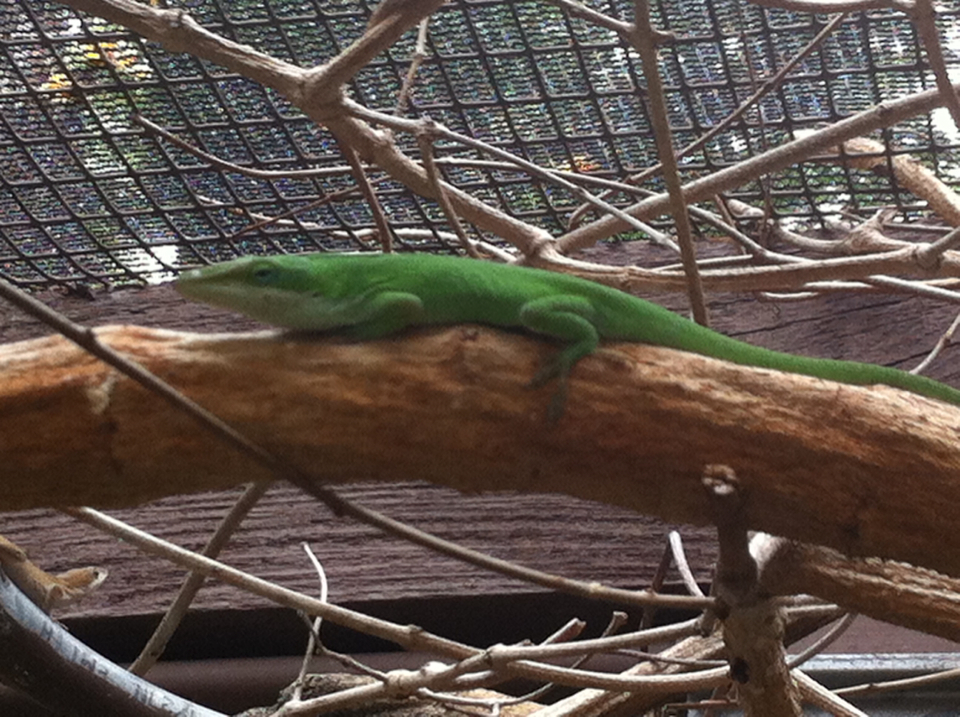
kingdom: Animalia
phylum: Chordata
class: Squamata
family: Dactyloidae
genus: Anolis
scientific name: Anolis carolinensis
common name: Green anole
